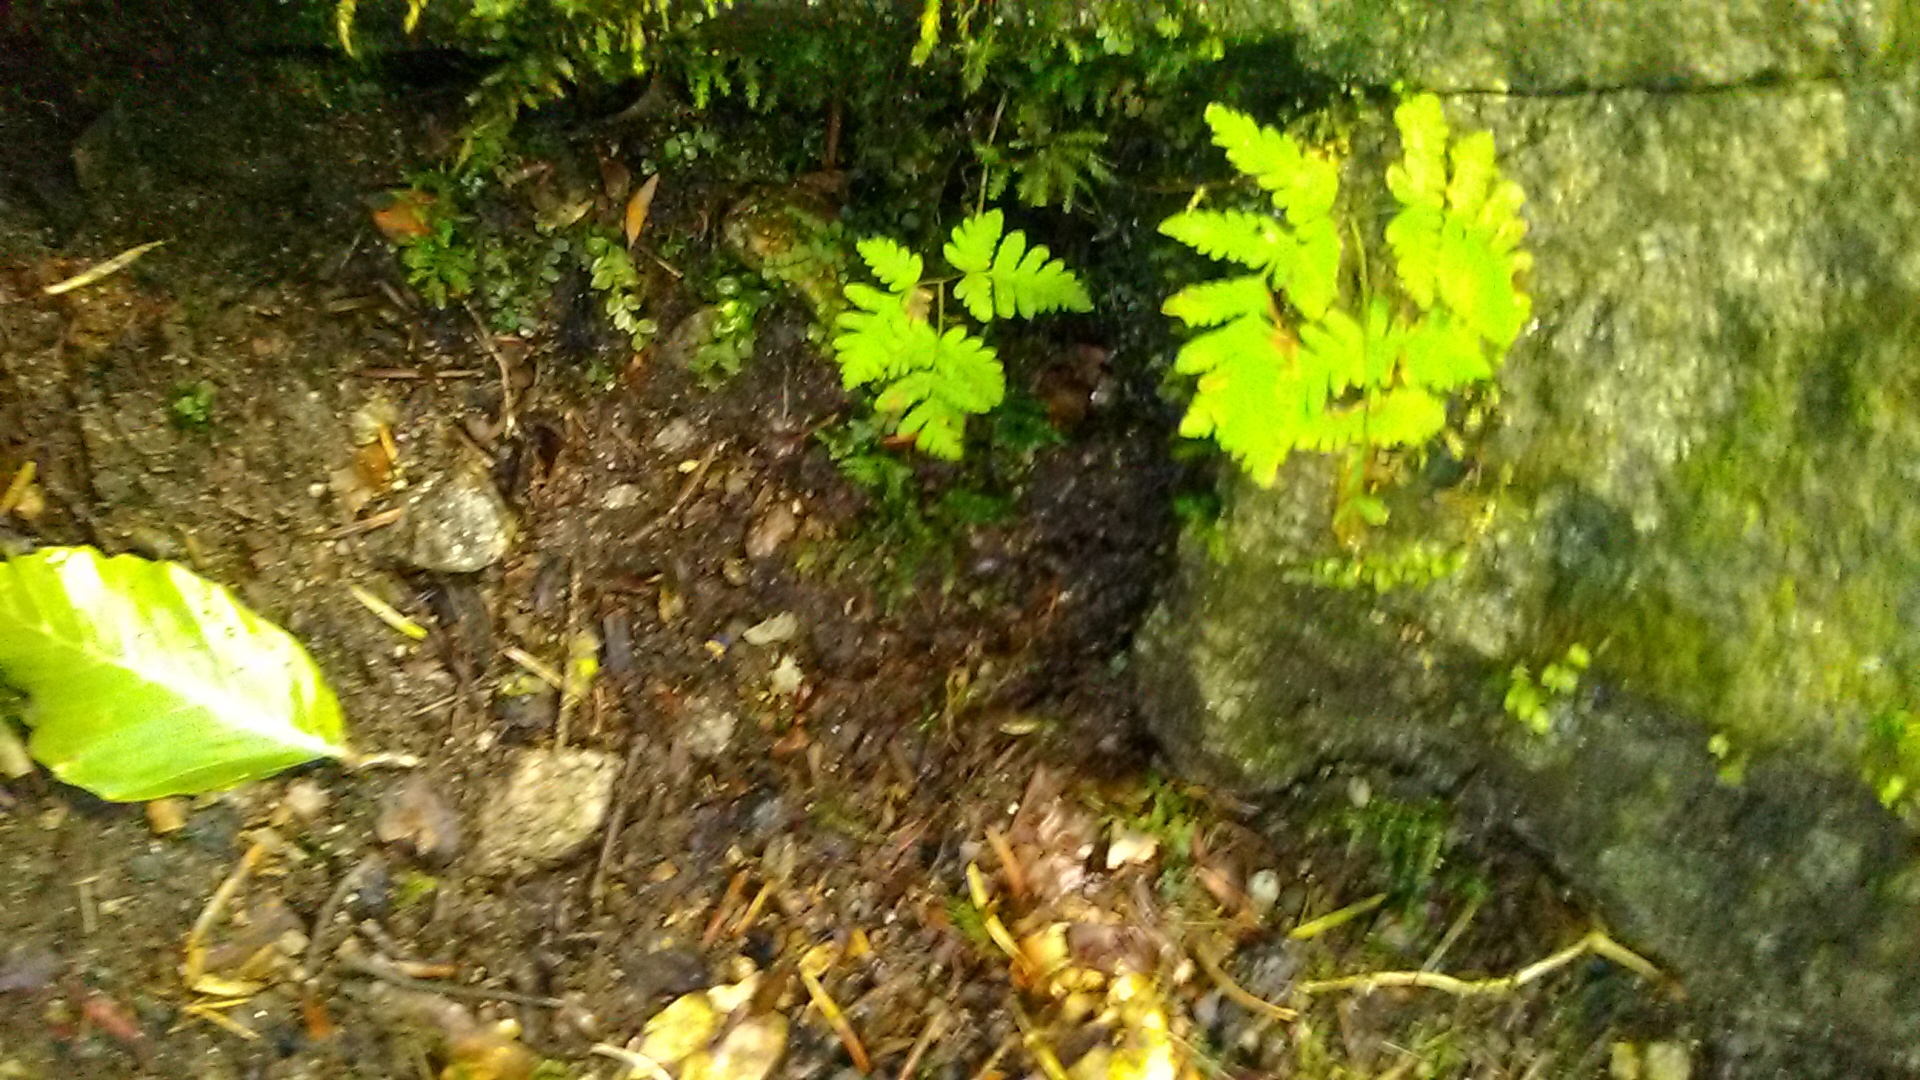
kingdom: Plantae
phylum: Tracheophyta
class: Polypodiopsida
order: Polypodiales
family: Cystopteridaceae
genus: Gymnocarpium
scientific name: Gymnocarpium dryopteris
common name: Oak fern
